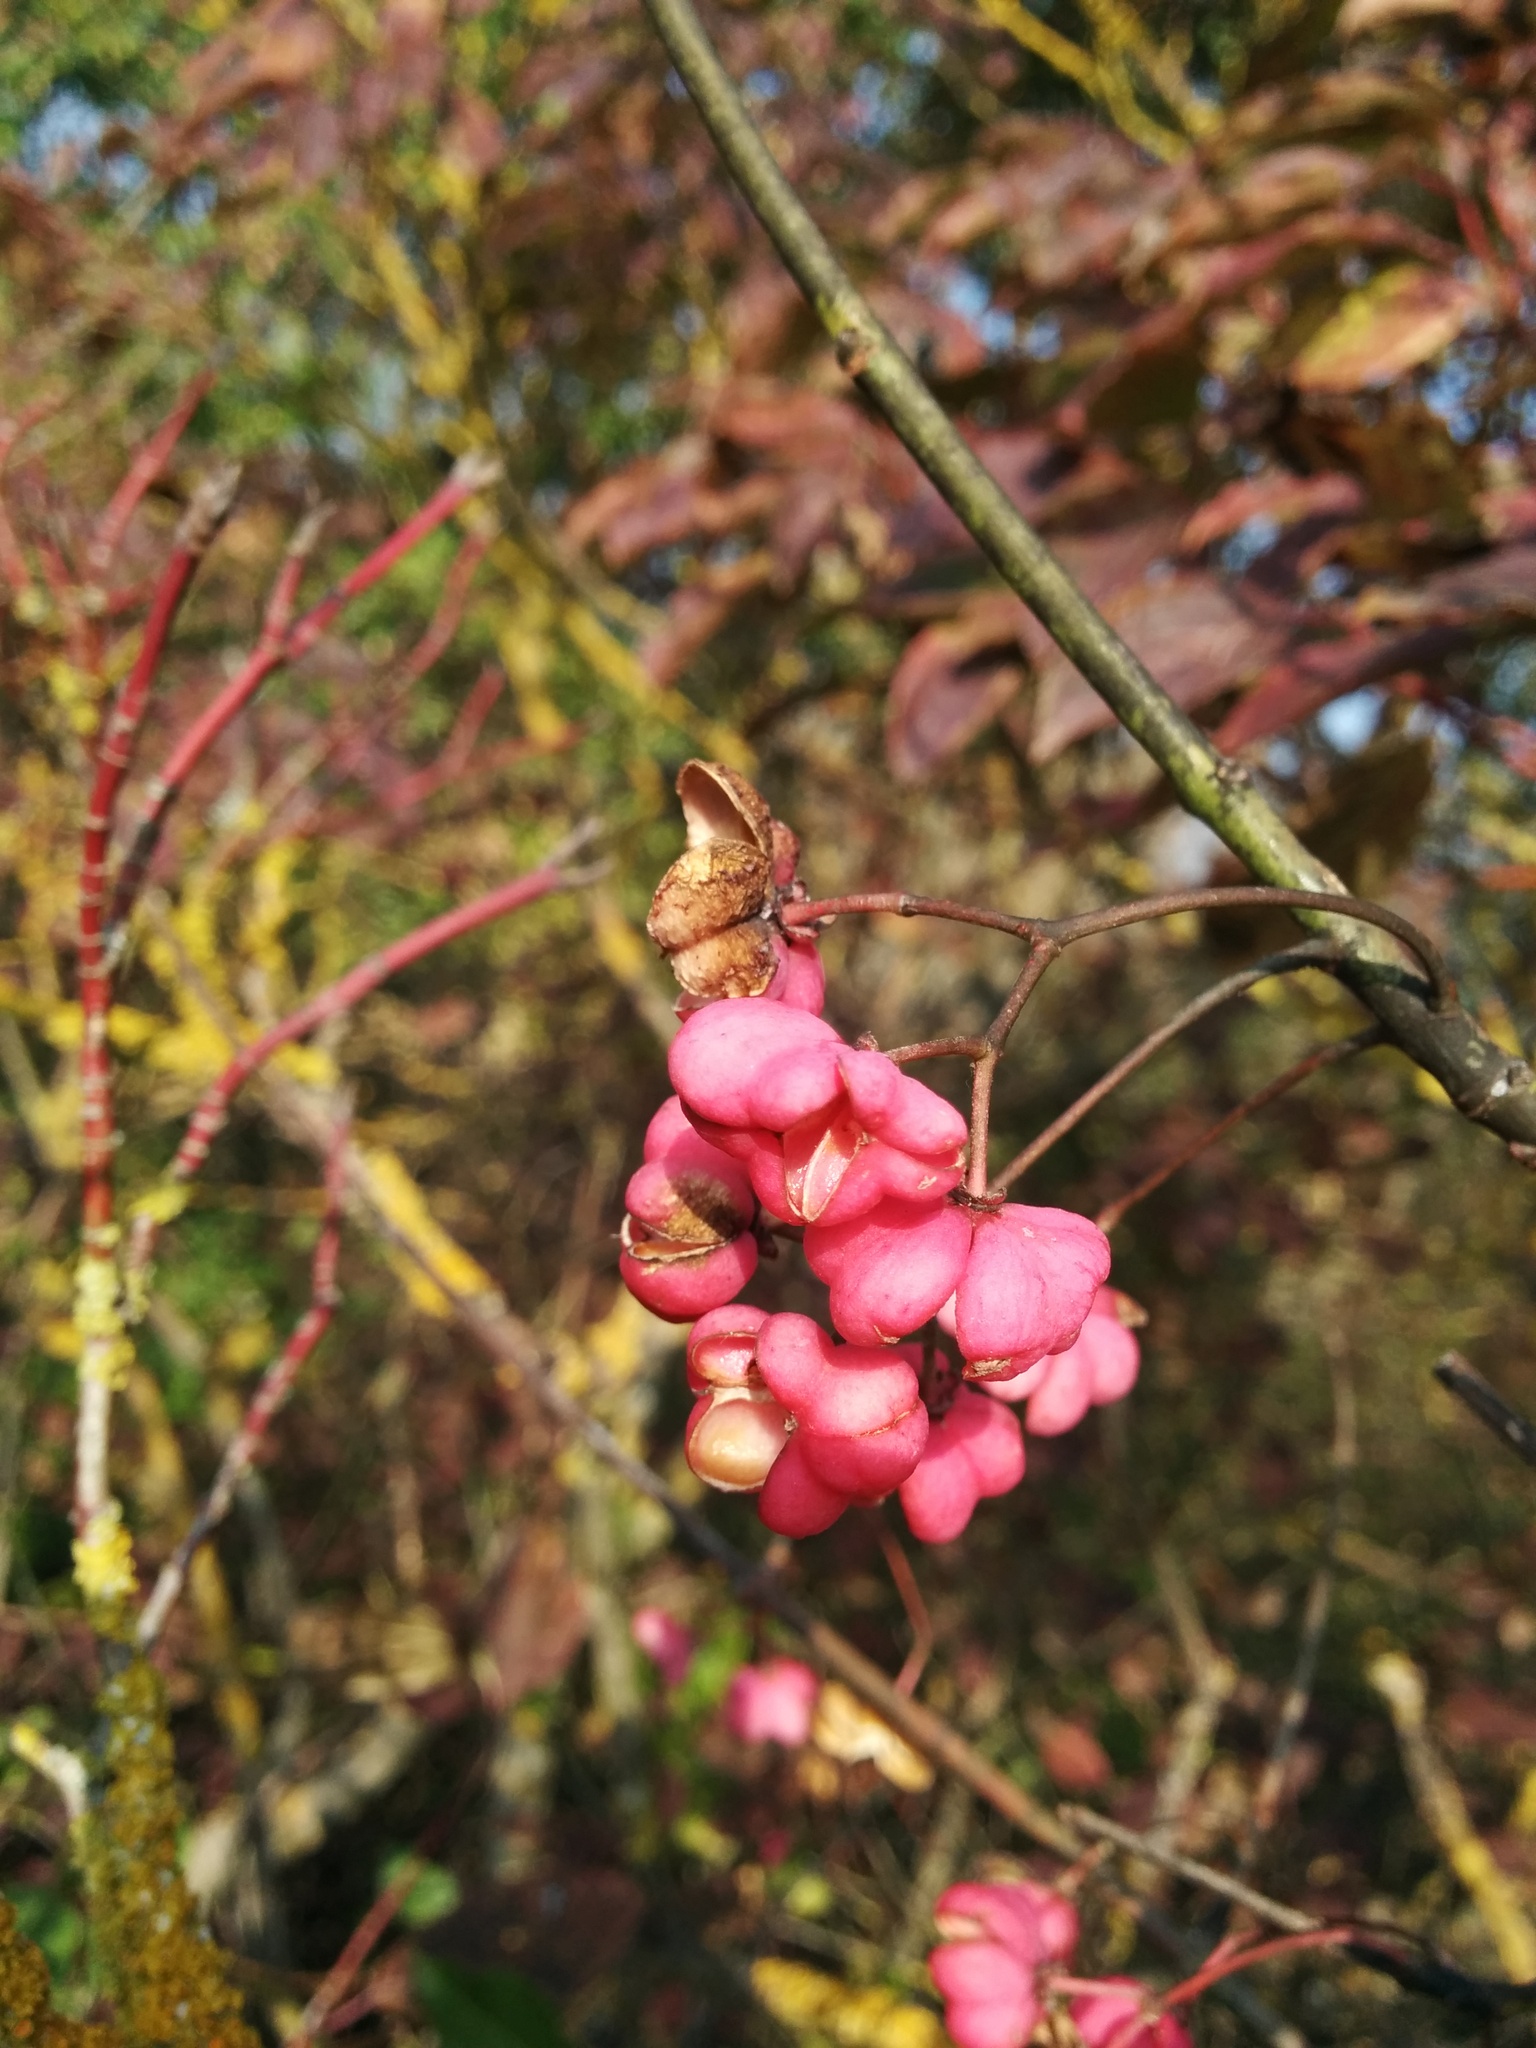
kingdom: Plantae
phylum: Tracheophyta
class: Magnoliopsida
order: Celastrales
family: Celastraceae
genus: Euonymus
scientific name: Euonymus europaeus
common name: Spindle
